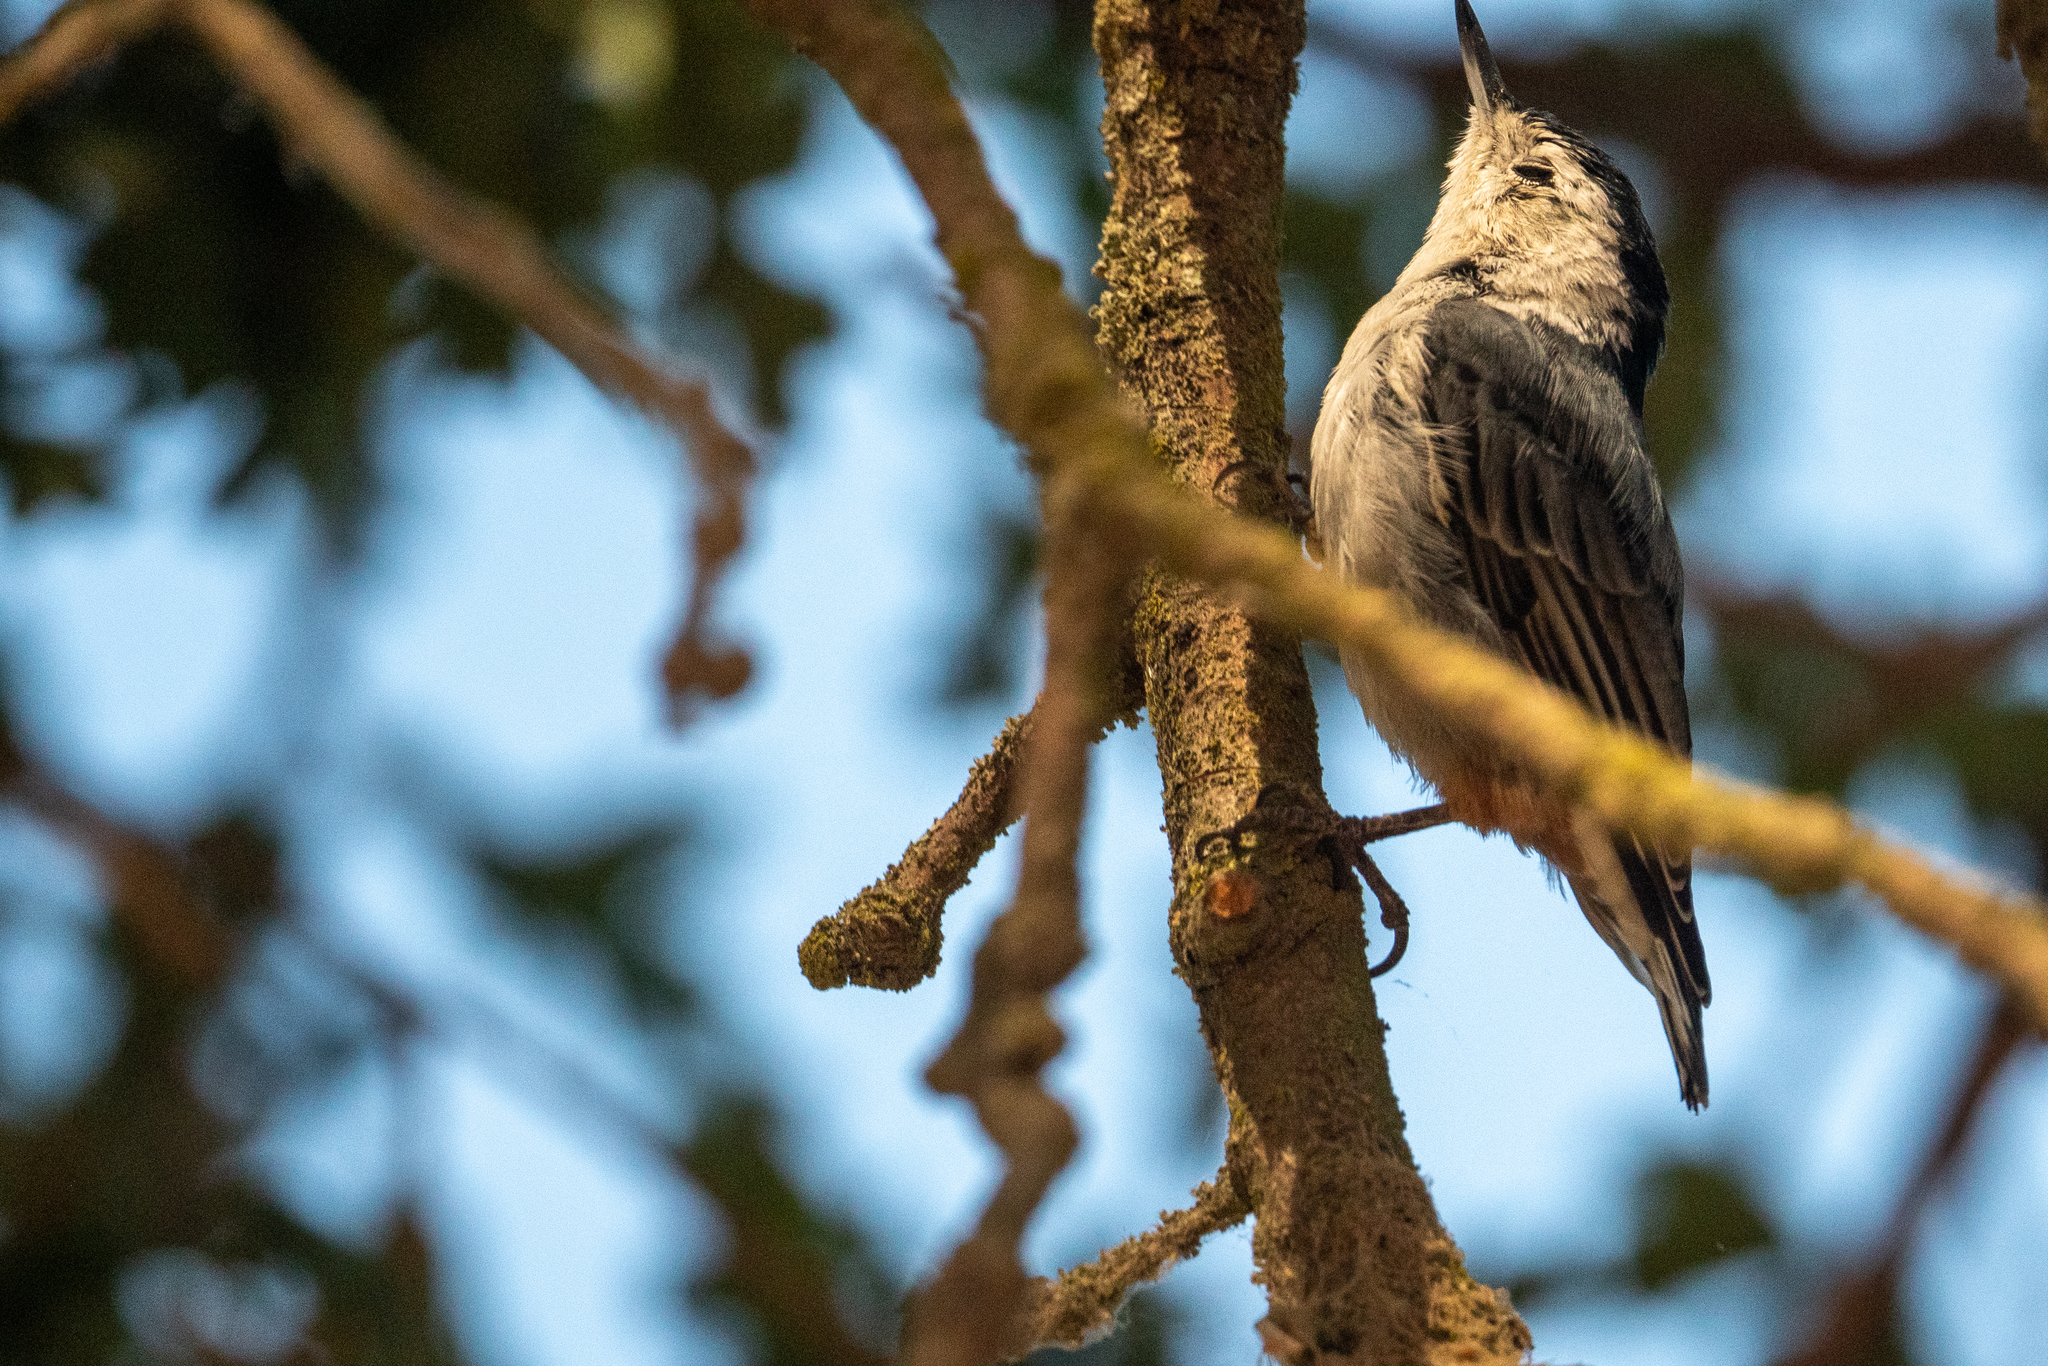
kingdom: Animalia
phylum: Chordata
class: Aves
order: Passeriformes
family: Sittidae
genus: Sitta
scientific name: Sitta carolinensis
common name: White-breasted nuthatch
